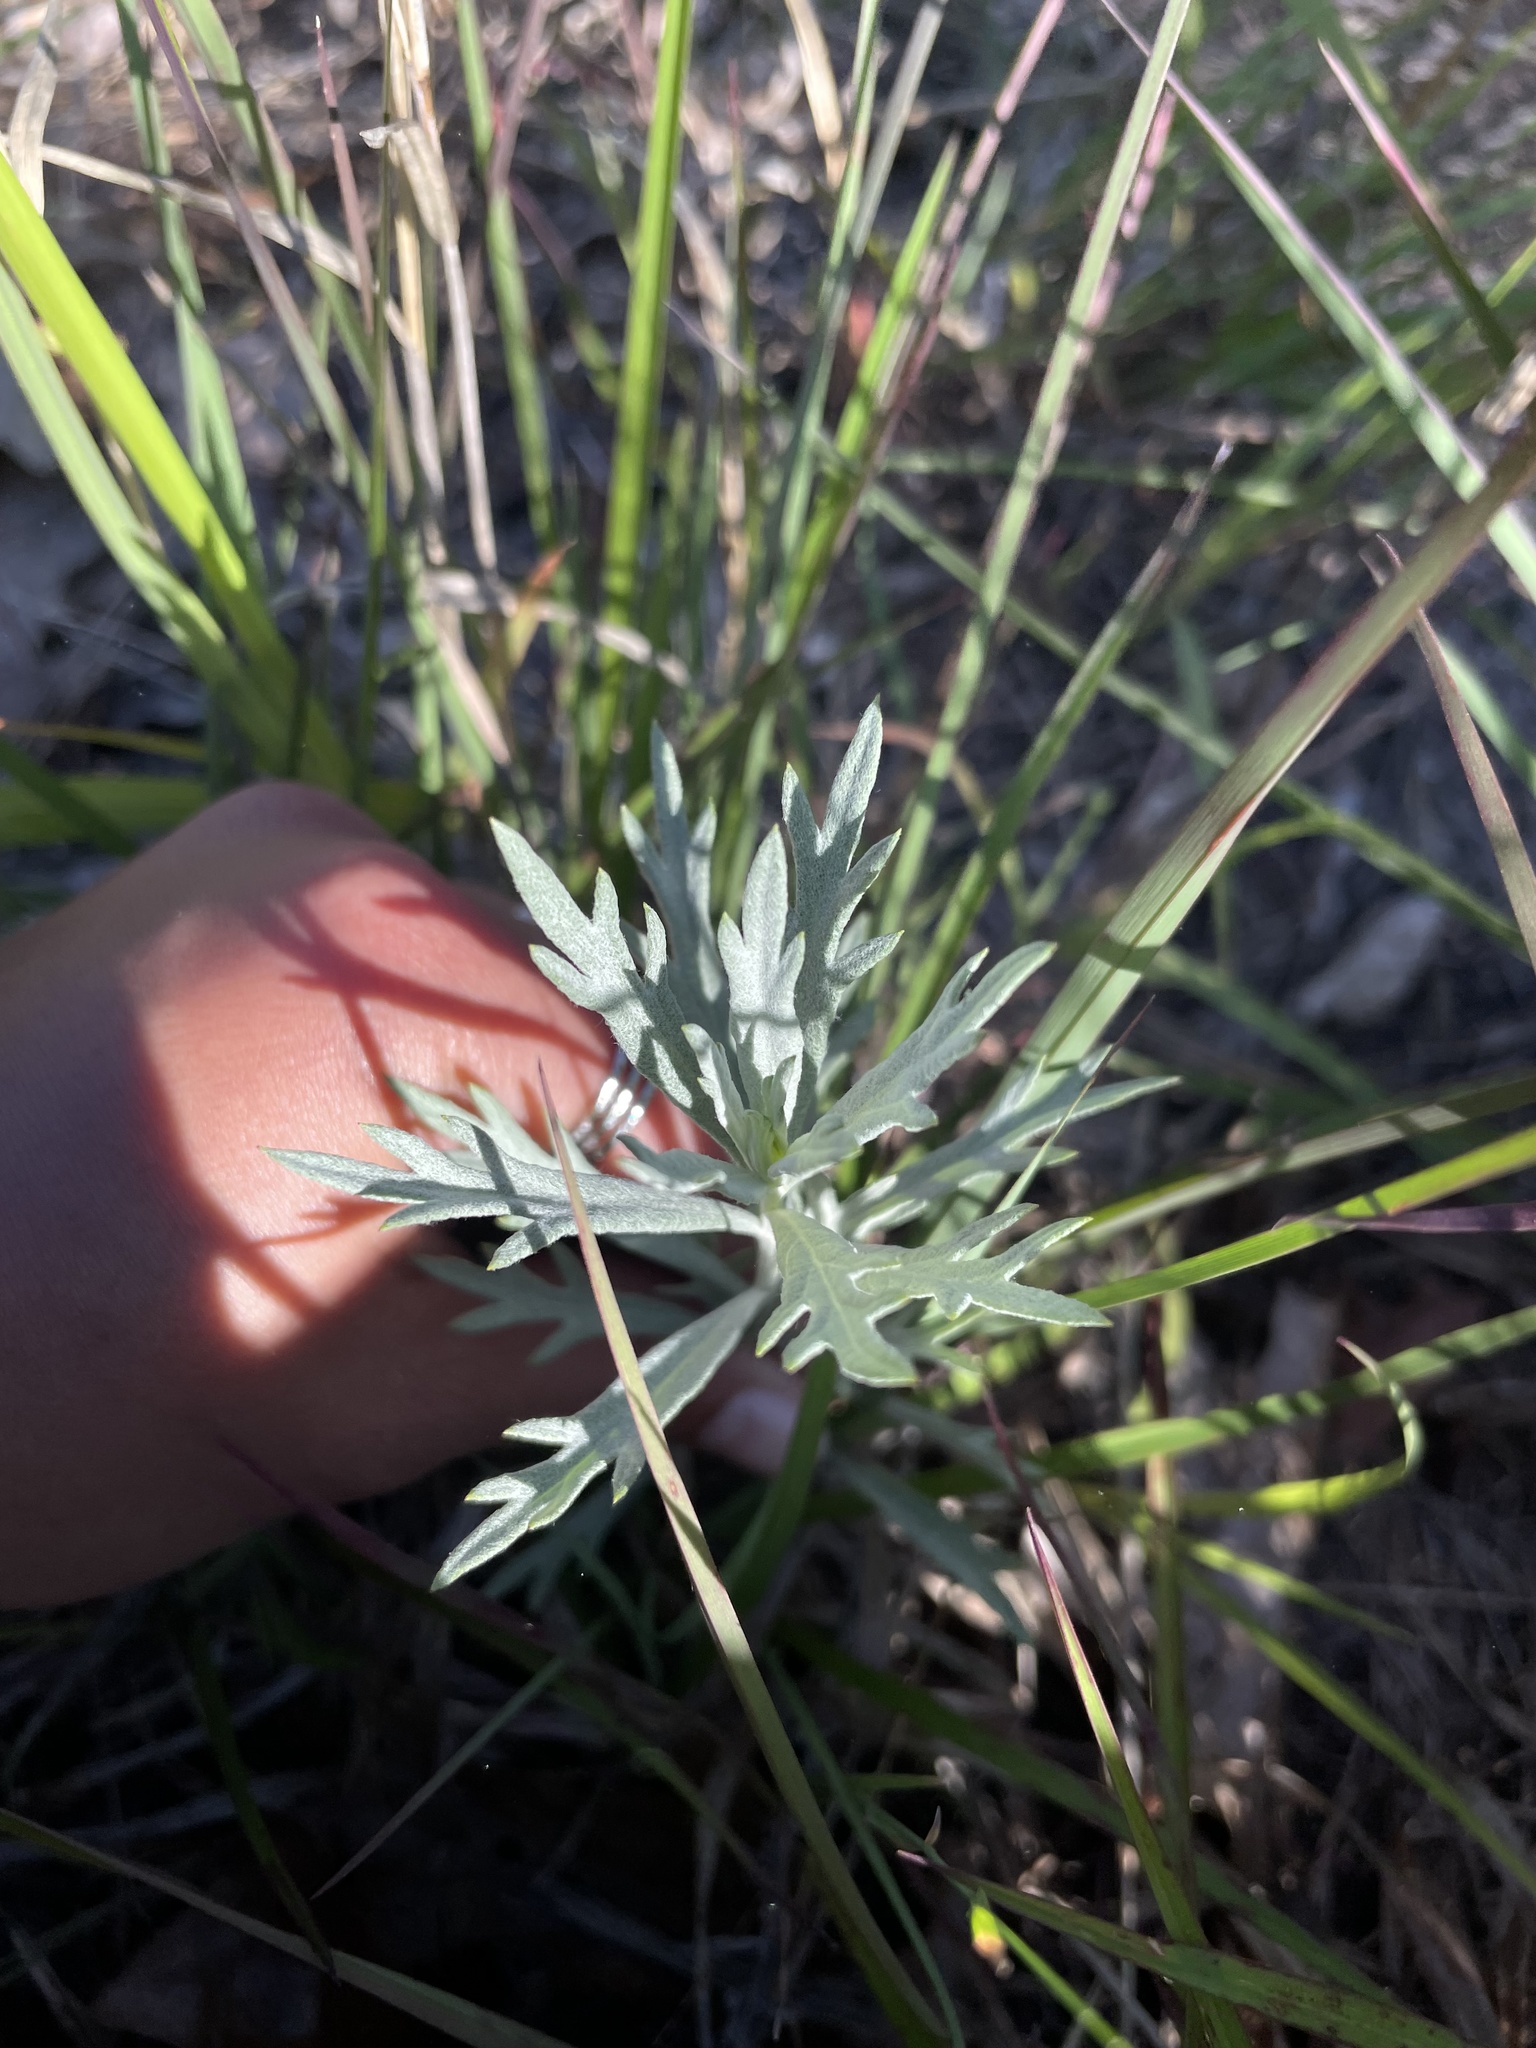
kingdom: Plantae
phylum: Tracheophyta
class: Magnoliopsida
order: Asterales
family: Asteraceae
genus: Artemisia
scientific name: Artemisia ludoviciana
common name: Western mugwort
